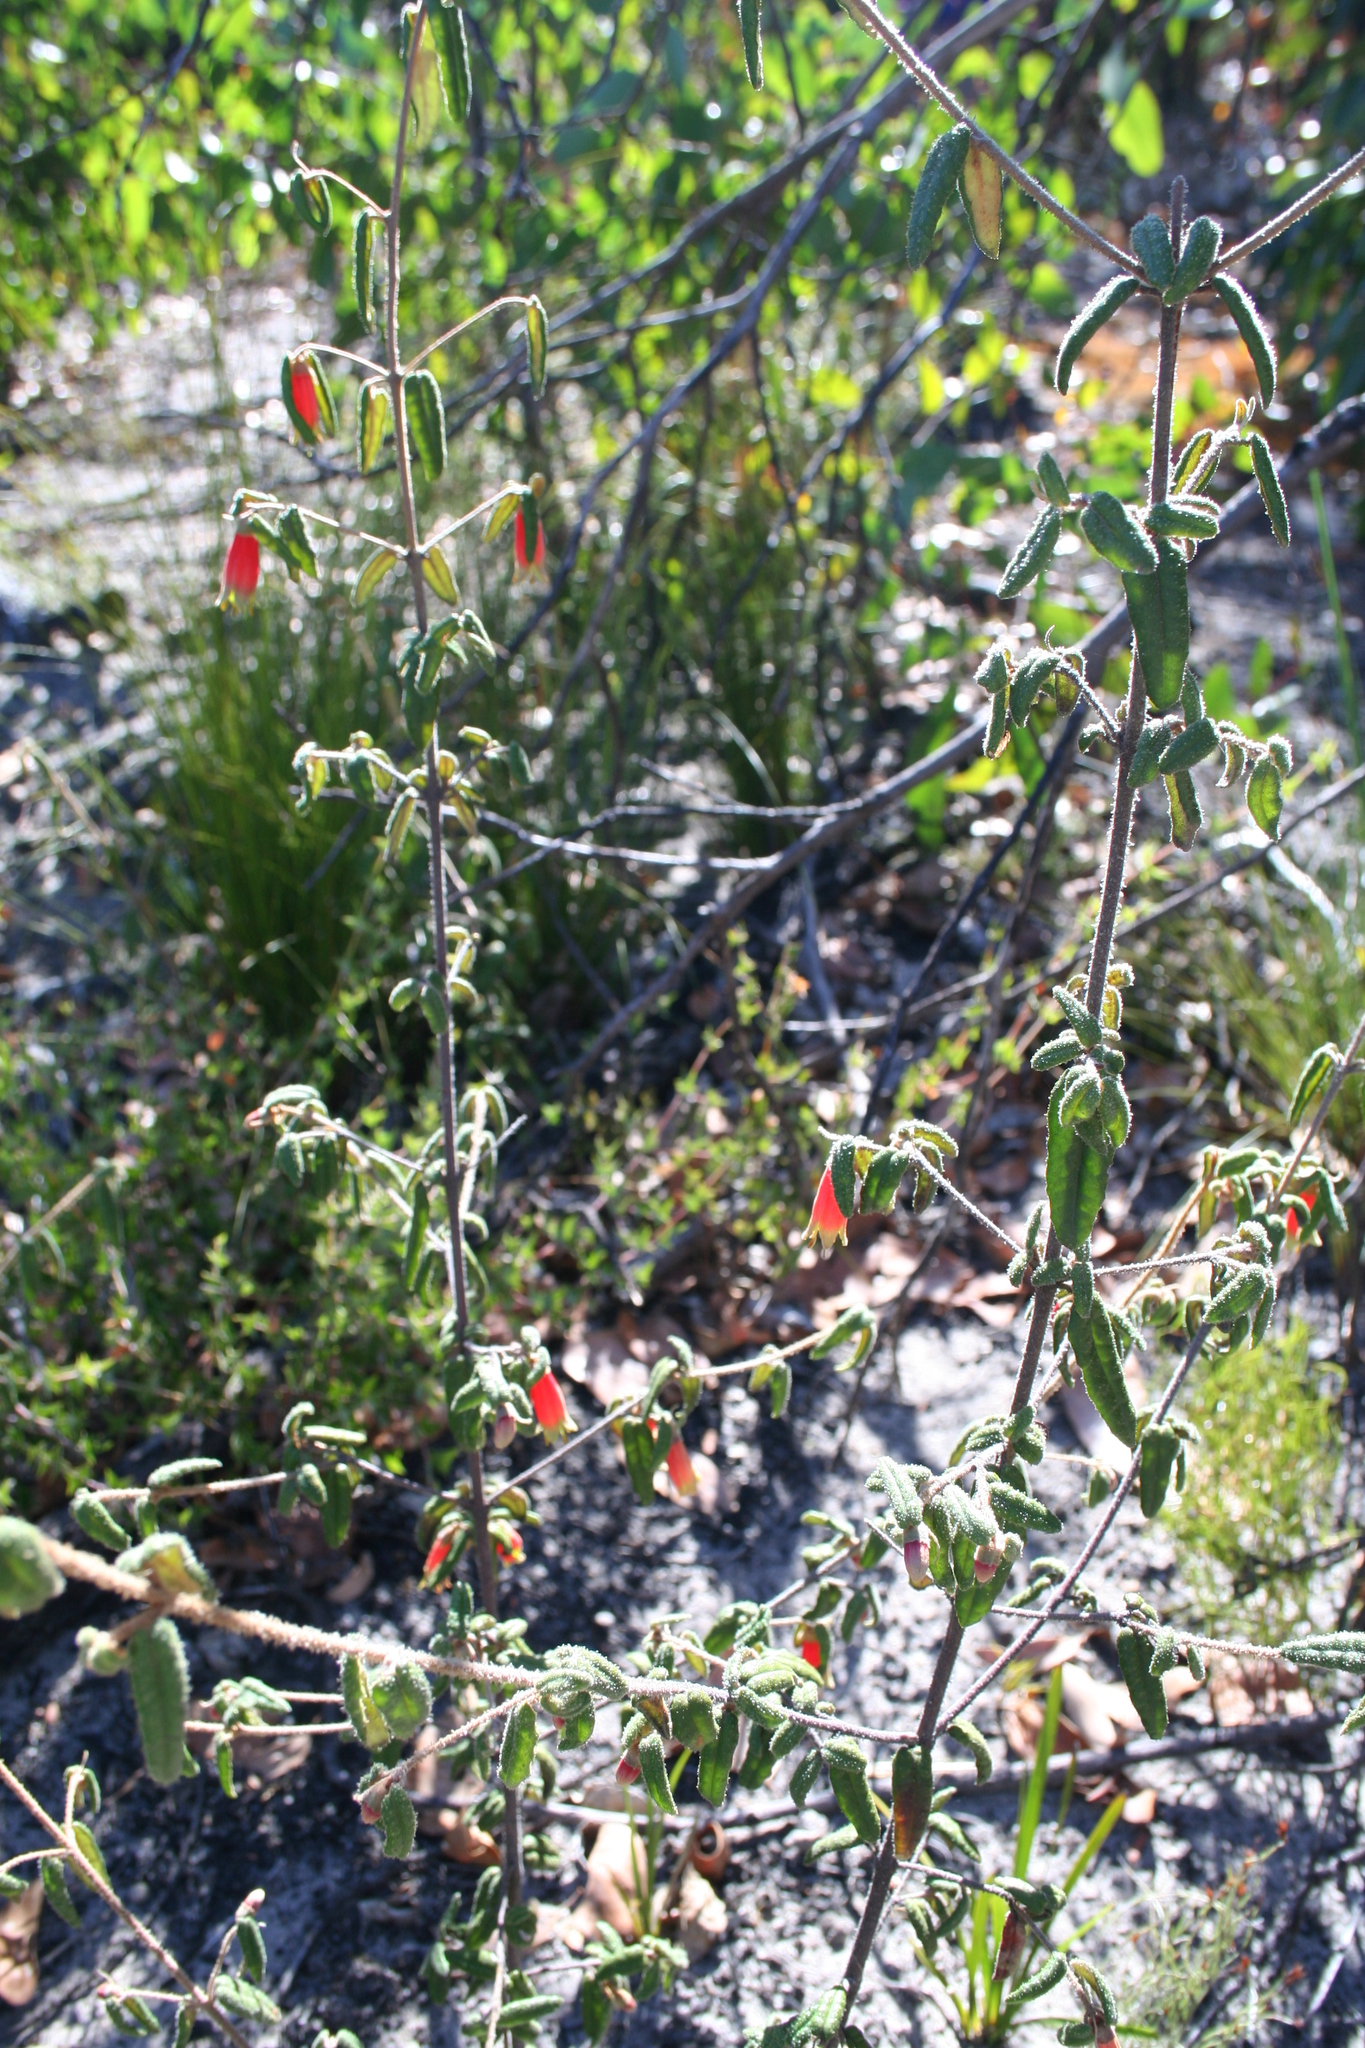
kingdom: Plantae
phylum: Tracheophyta
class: Magnoliopsida
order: Sapindales
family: Rutaceae
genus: Correa
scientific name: Correa reflexa
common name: Common correa
